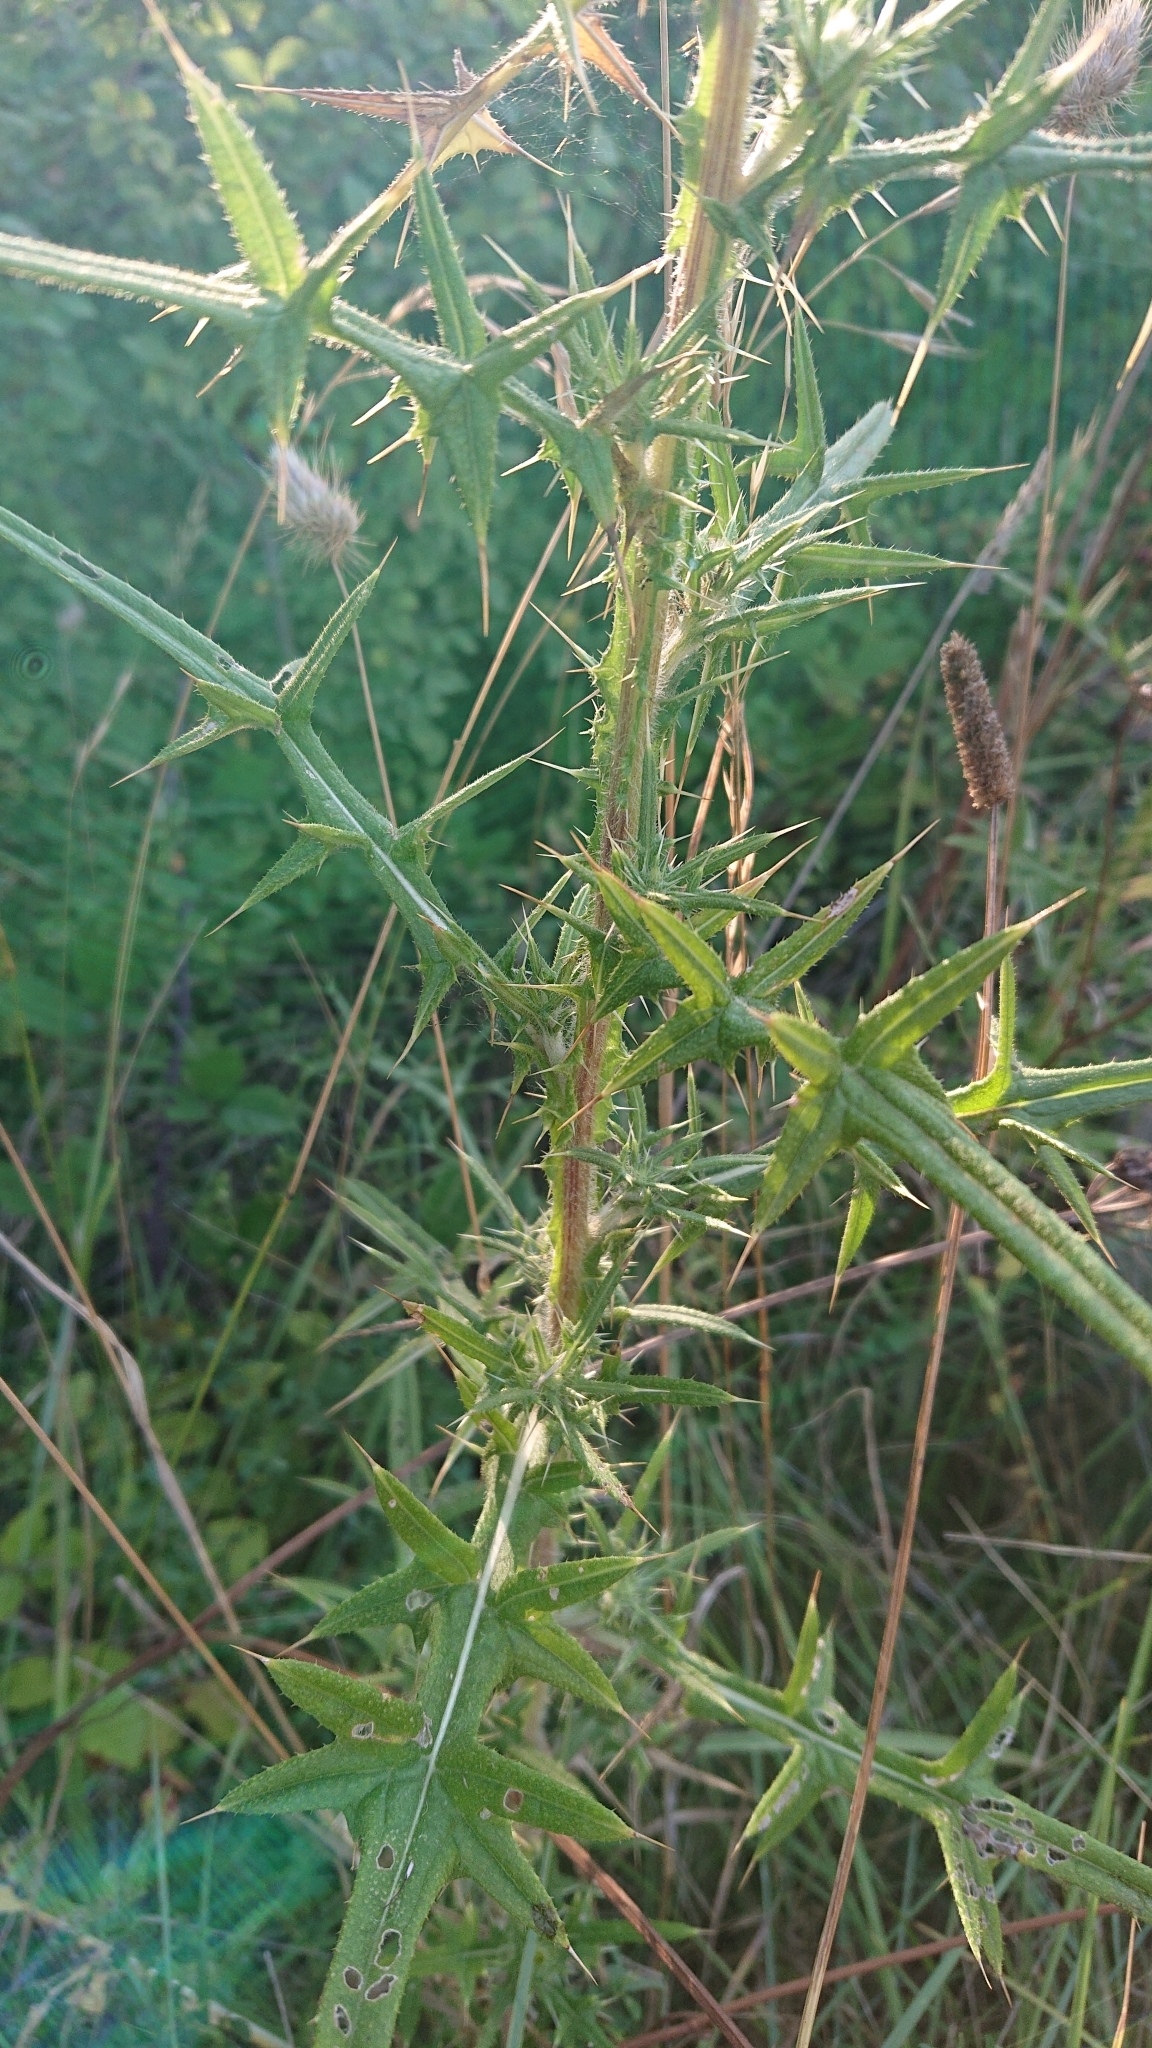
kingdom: Plantae
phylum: Tracheophyta
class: Magnoliopsida
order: Asterales
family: Asteraceae
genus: Cirsium
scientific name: Cirsium vulgare
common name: Bull thistle
